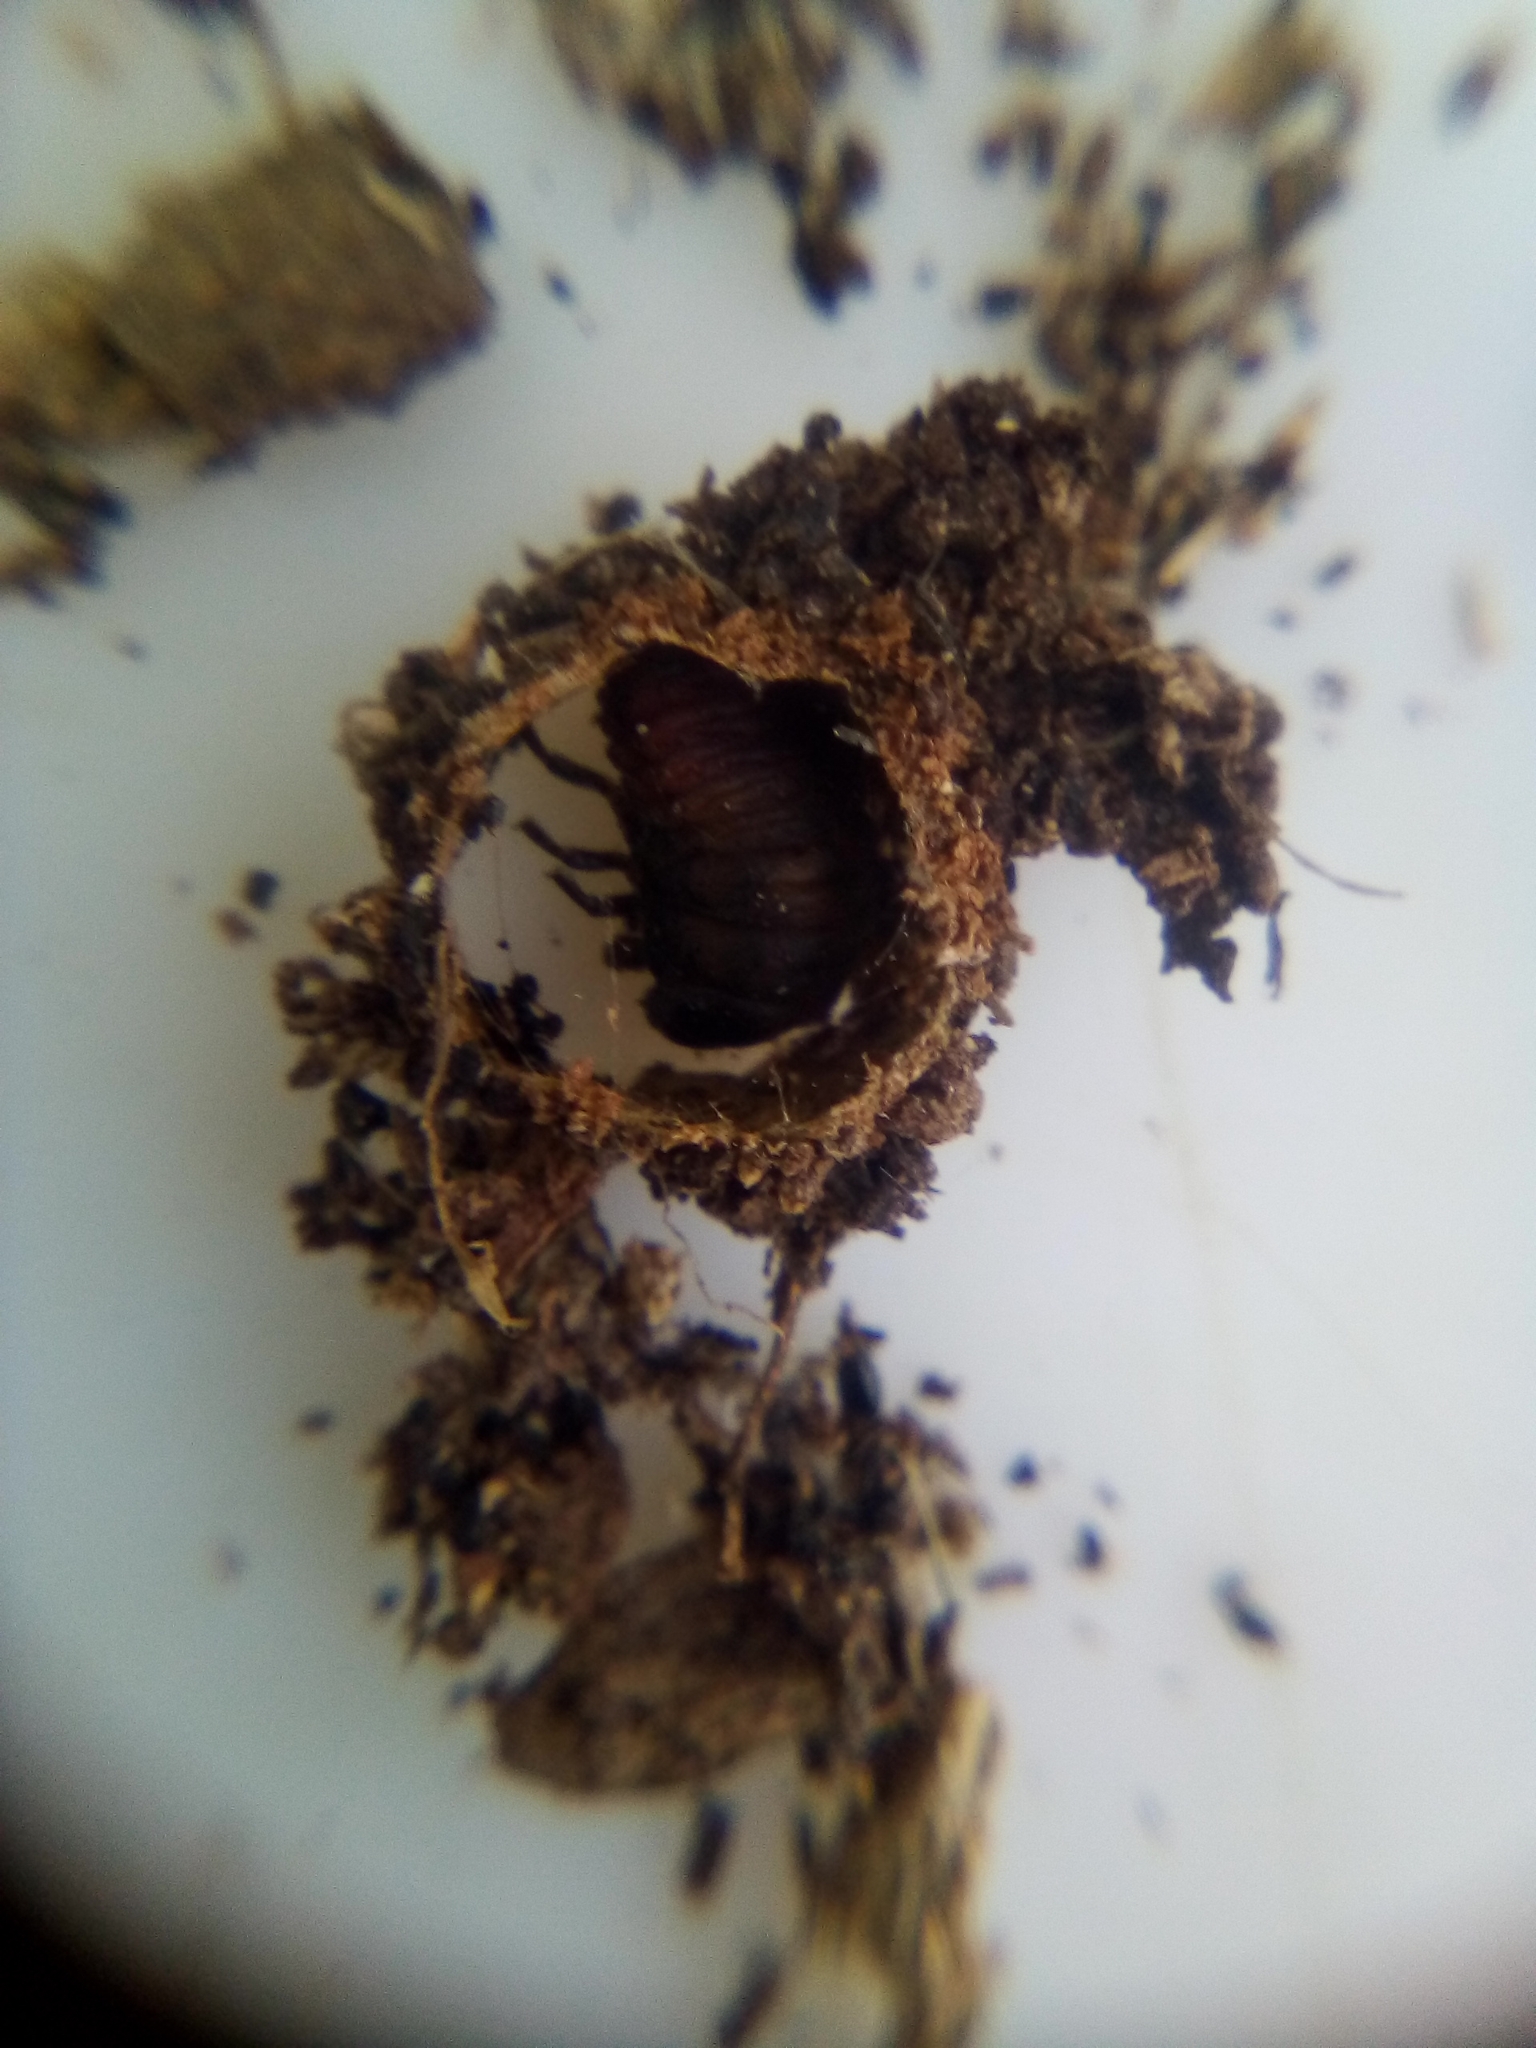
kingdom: Animalia
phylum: Arthropoda
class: Insecta
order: Coleoptera
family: Chrysomelidae
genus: Trachymela
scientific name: Trachymela sloanei
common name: Australian tortoise beetle
